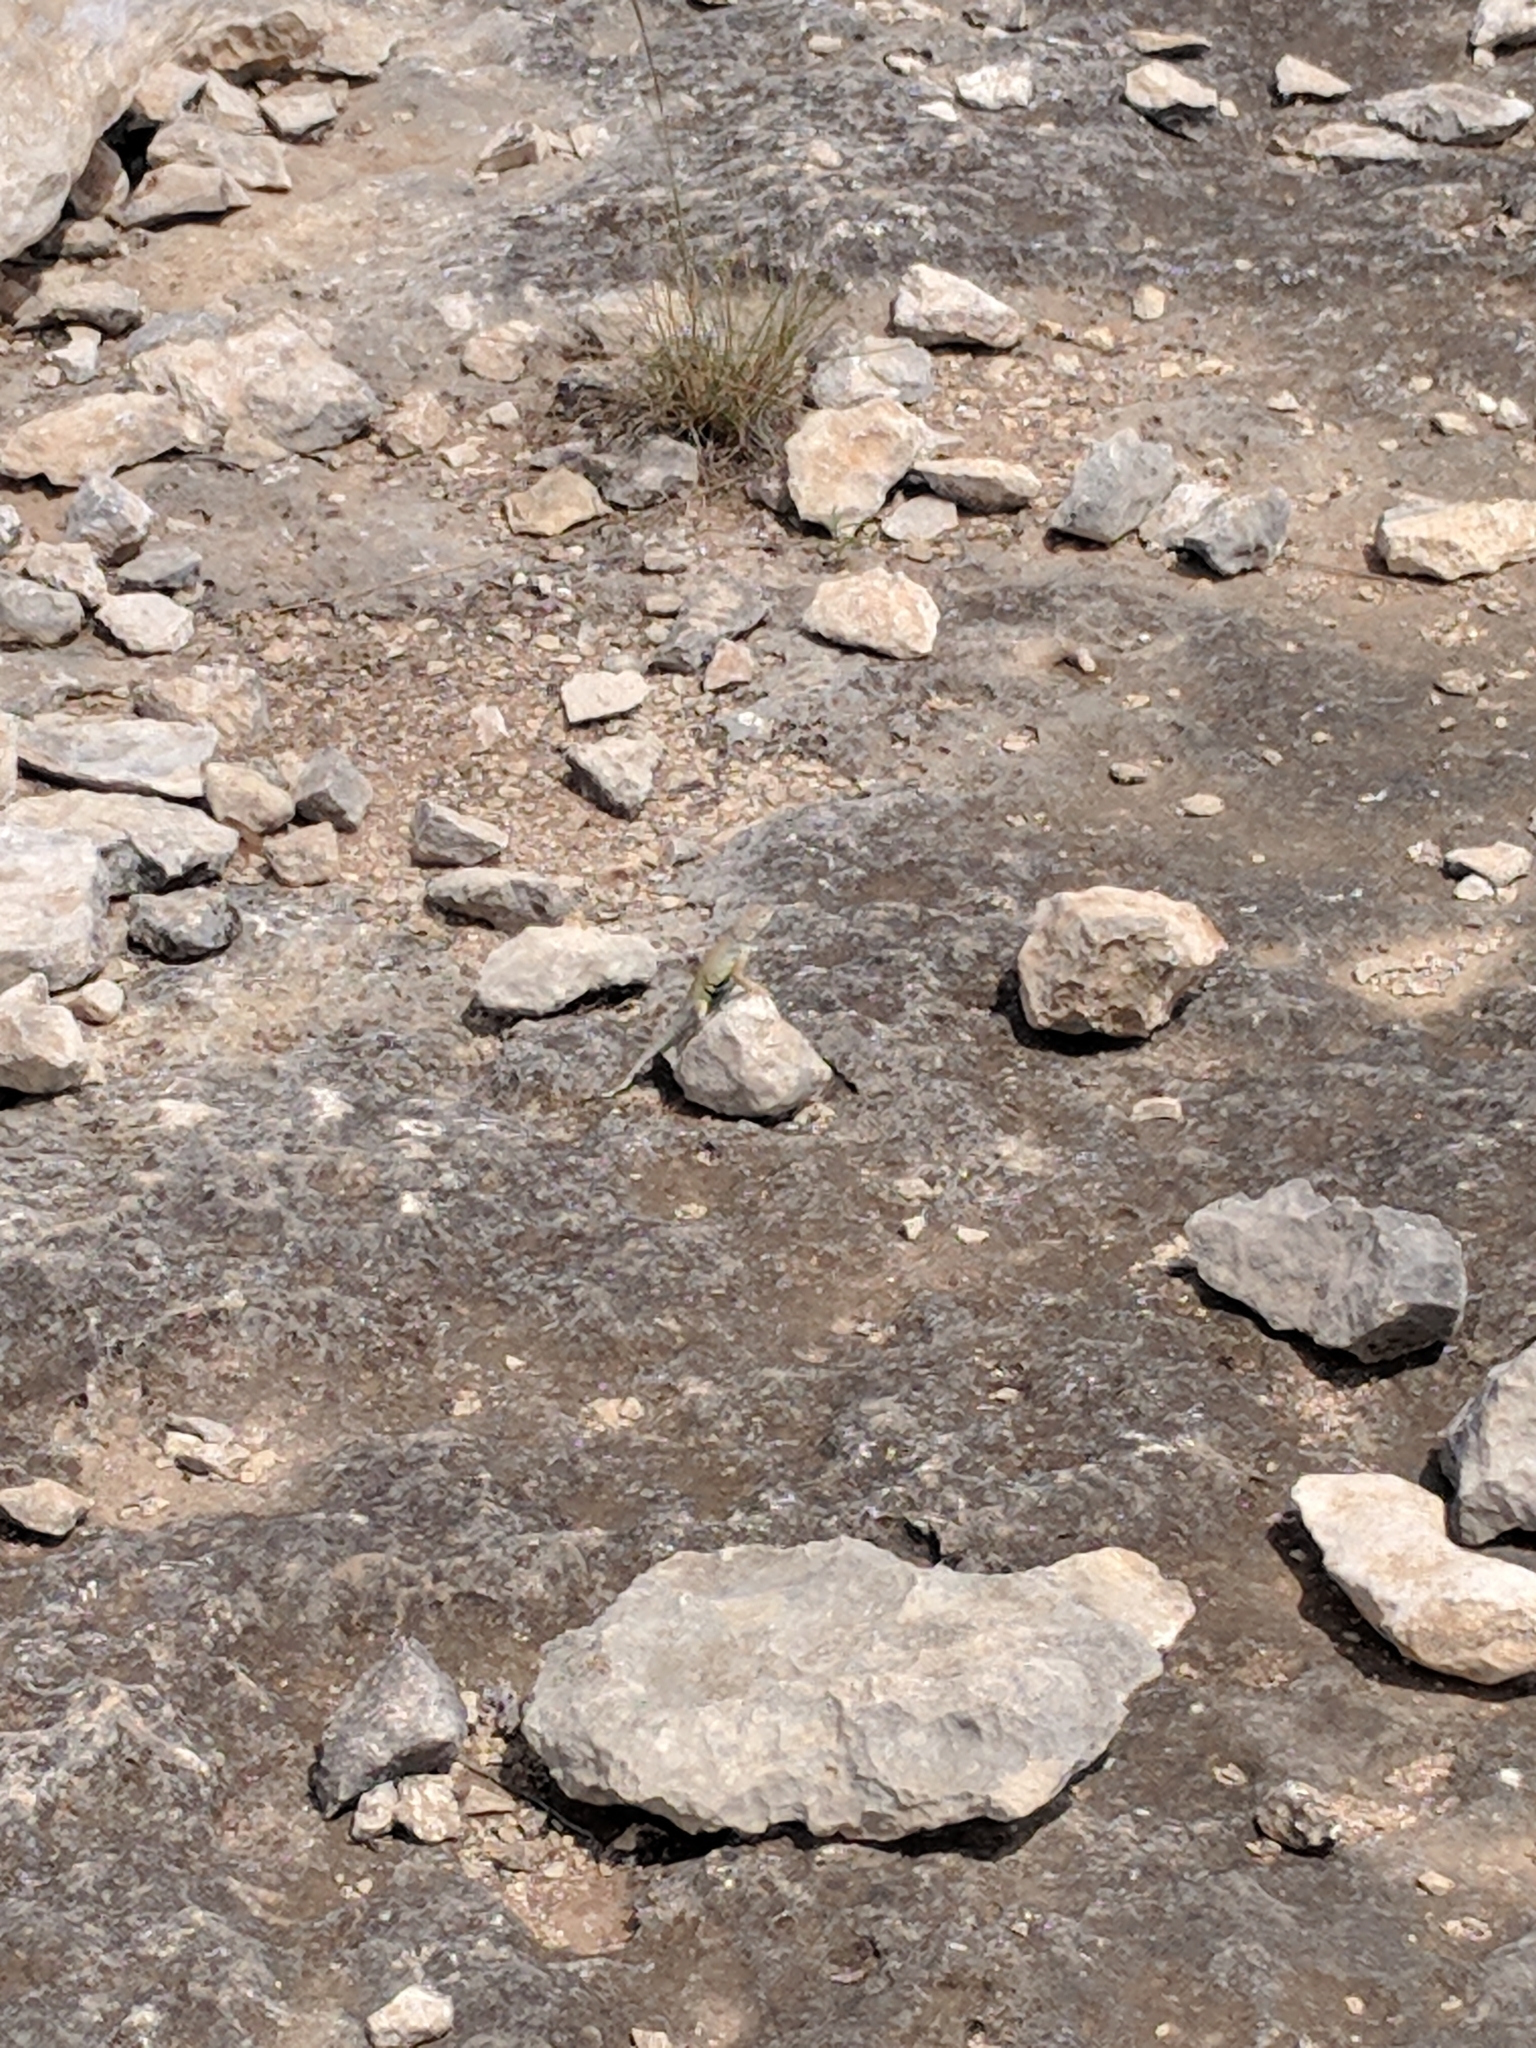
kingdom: Animalia
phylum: Chordata
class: Squamata
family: Phrynosomatidae
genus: Cophosaurus
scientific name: Cophosaurus texanus
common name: Greater earless lizard
